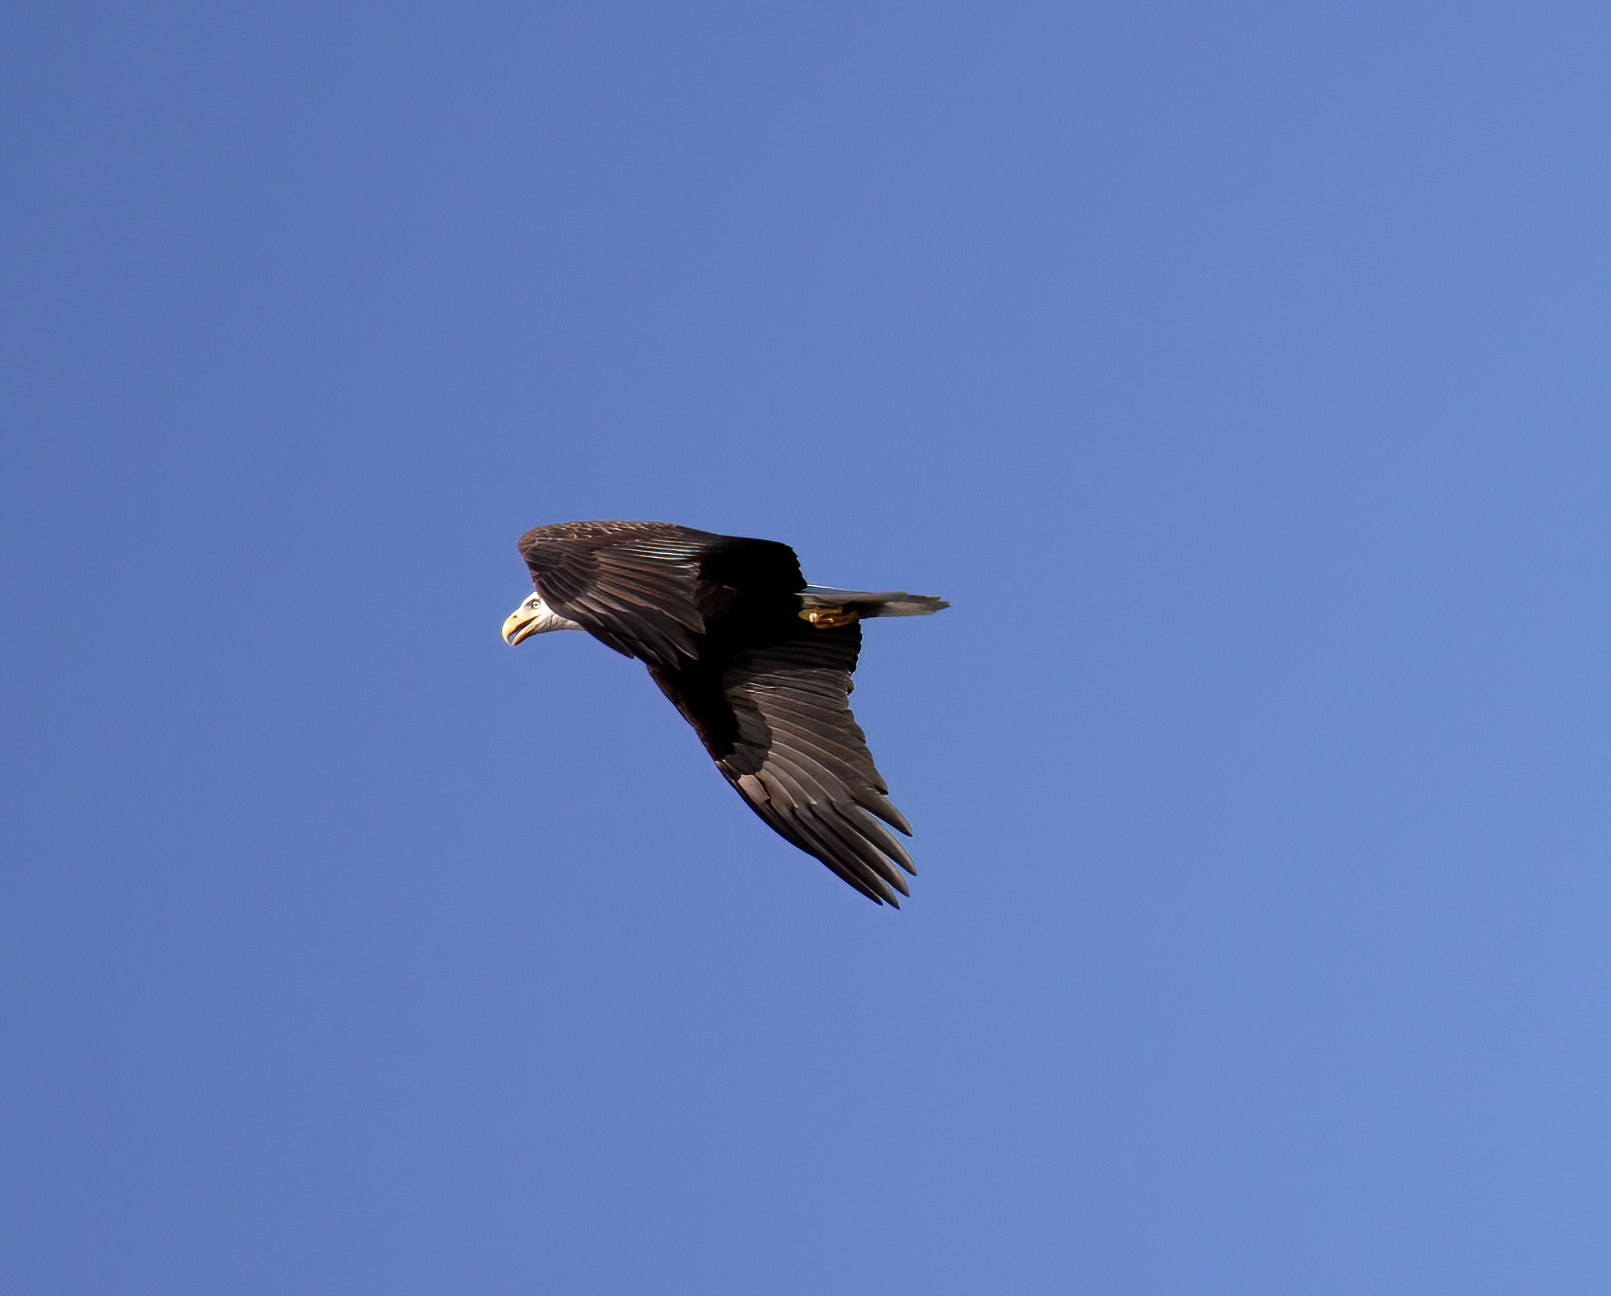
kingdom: Animalia
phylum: Chordata
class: Aves
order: Accipitriformes
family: Accipitridae
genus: Haliaeetus
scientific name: Haliaeetus leucocephalus
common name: Bald eagle
